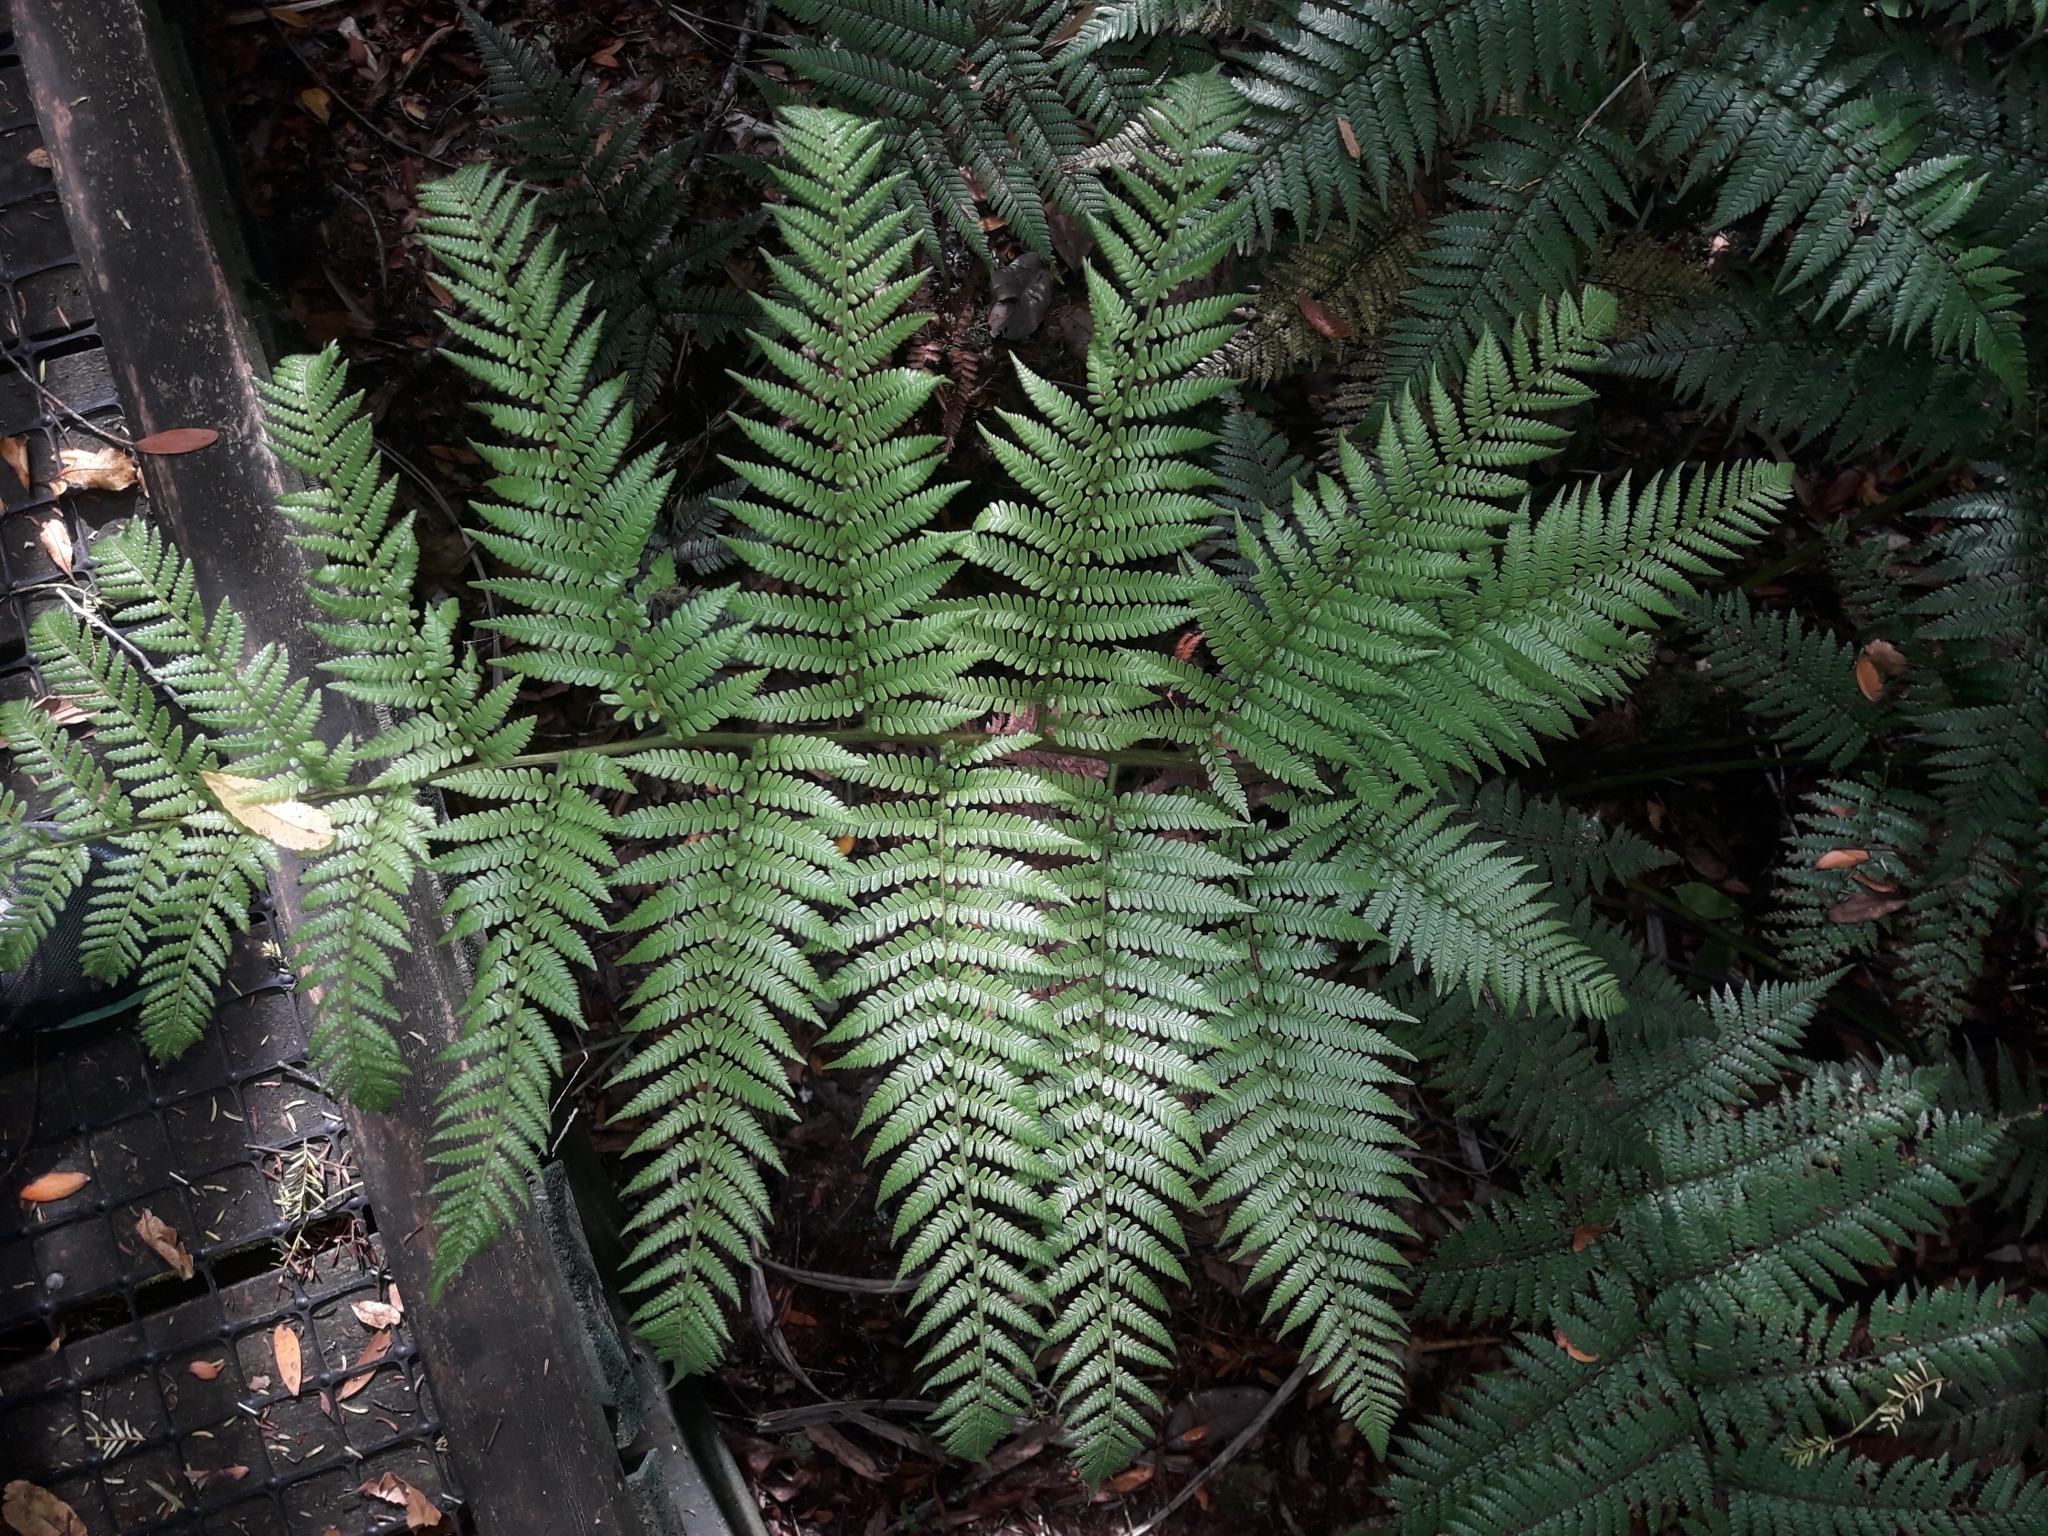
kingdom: Plantae
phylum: Tracheophyta
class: Polypodiopsida
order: Cyatheales
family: Dicksoniaceae
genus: Dicksonia
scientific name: Dicksonia lanata
